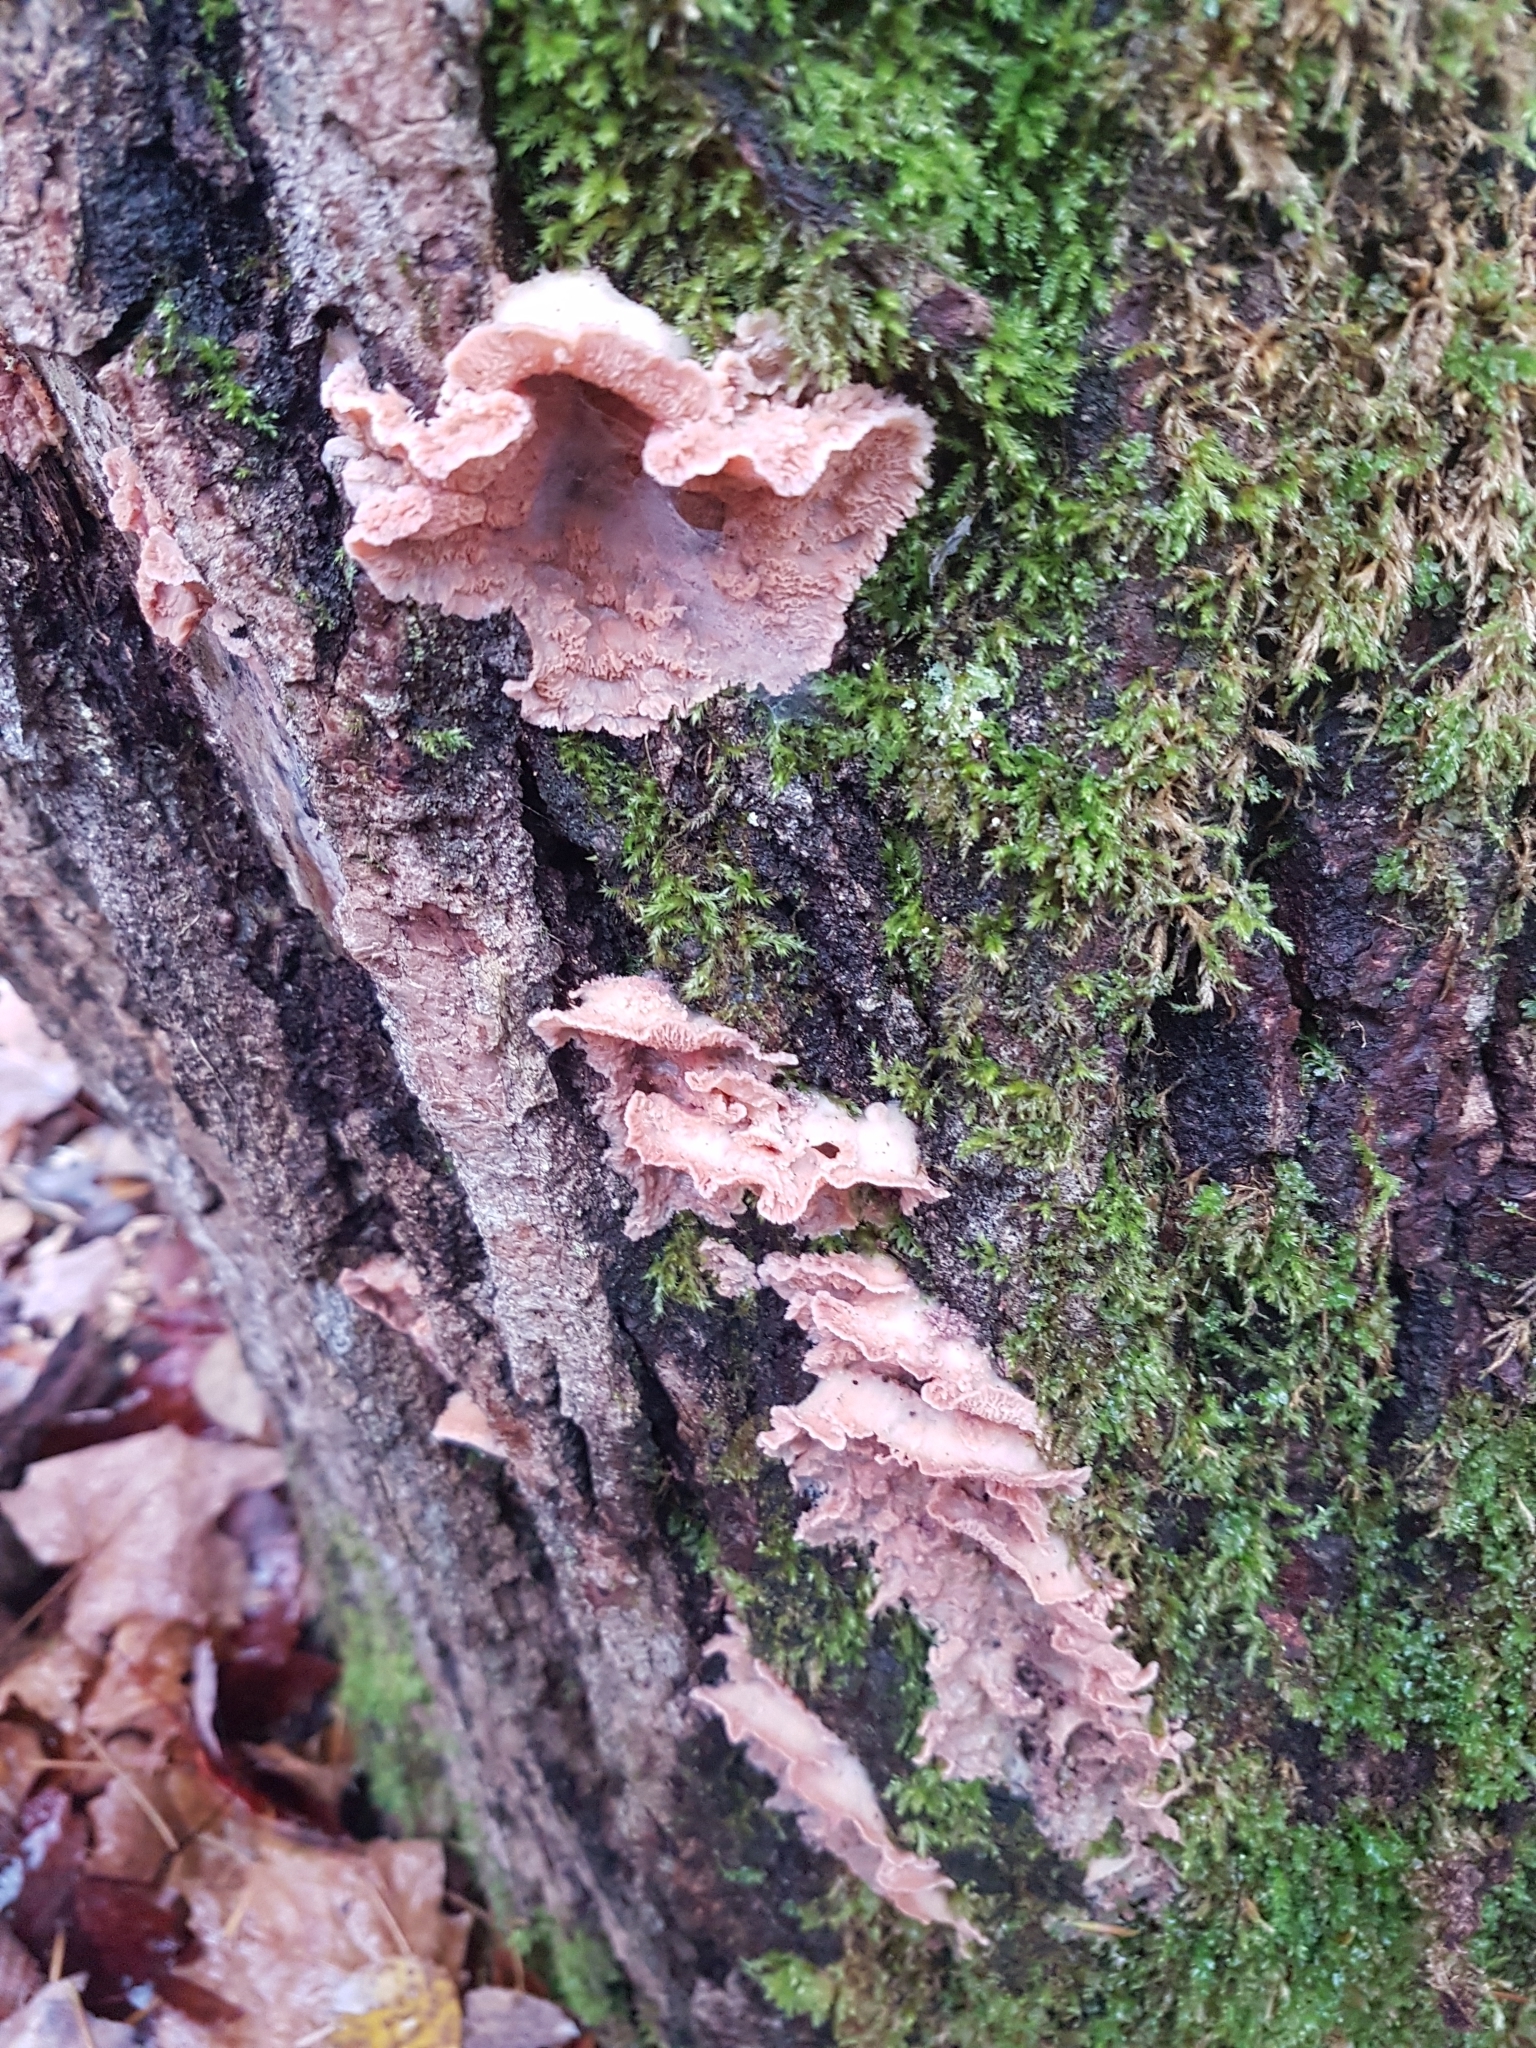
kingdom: Fungi
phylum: Basidiomycota
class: Agaricomycetes
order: Polyporales
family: Meruliaceae
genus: Phlebia
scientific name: Phlebia tremellosa
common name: Jelly rot
